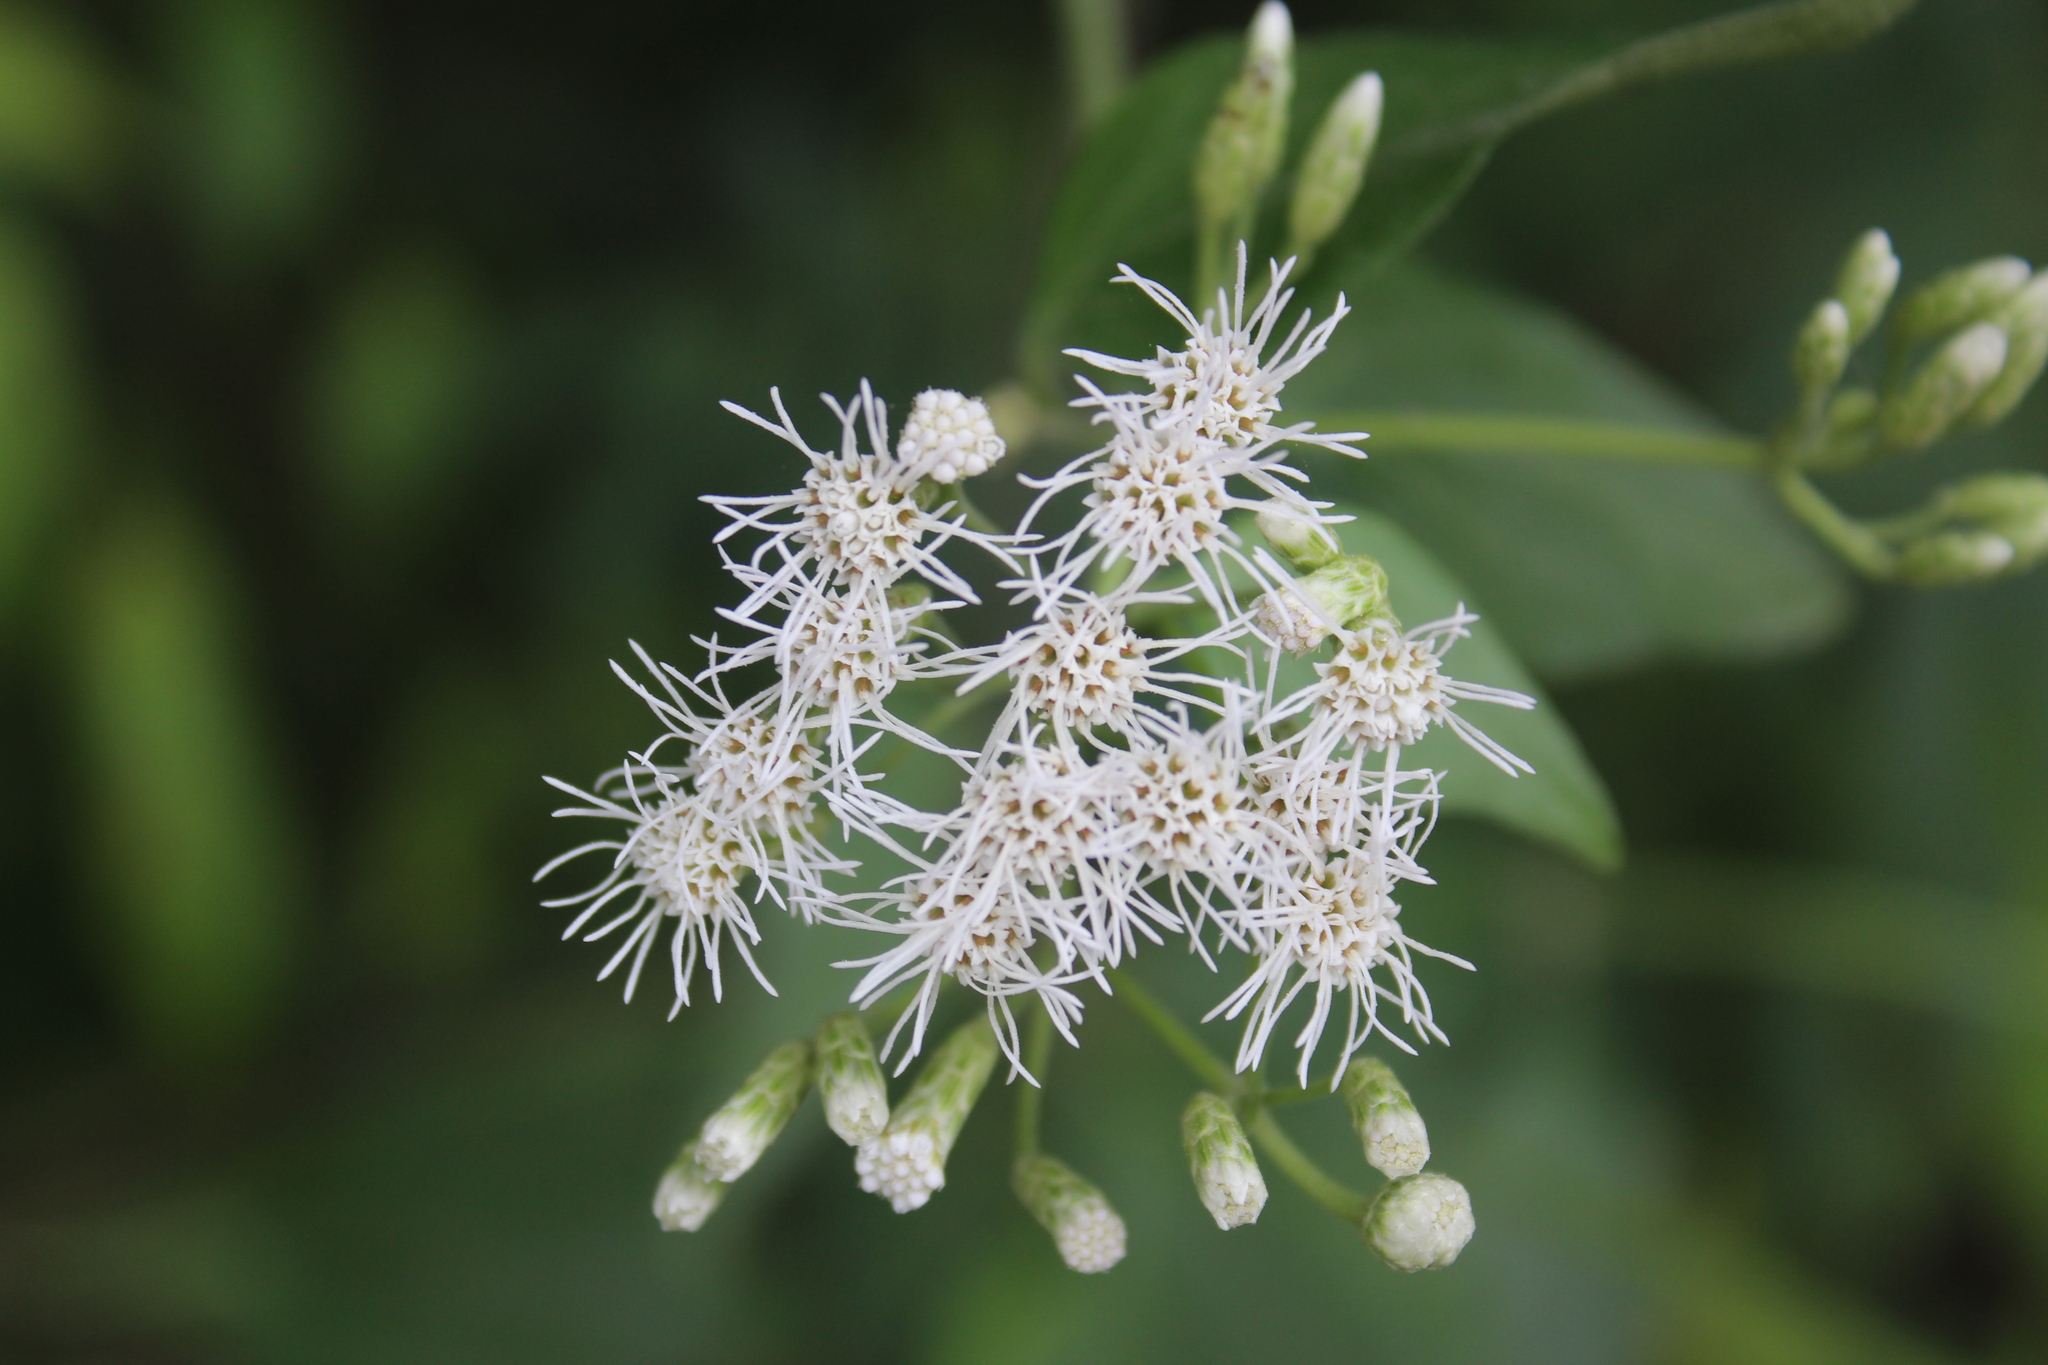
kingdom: Plantae
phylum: Tracheophyta
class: Magnoliopsida
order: Asterales
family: Asteraceae
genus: Chromolaena
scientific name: Chromolaena odorata
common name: Siamweed
